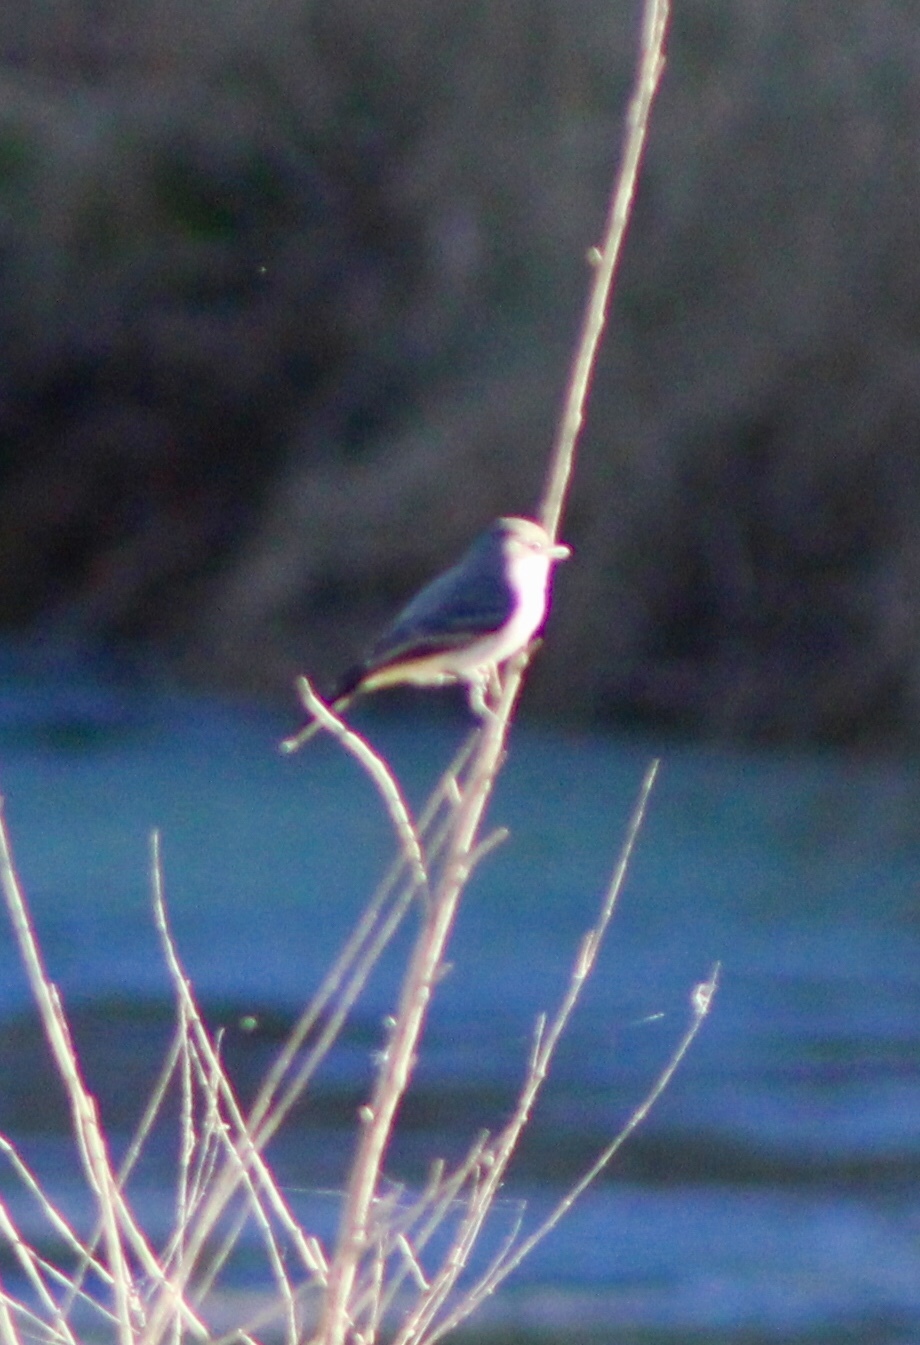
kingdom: Animalia
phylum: Chordata
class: Aves
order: Passeriformes
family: Tyrannidae
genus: Sayornis
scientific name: Sayornis saya
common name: Say's phoebe
